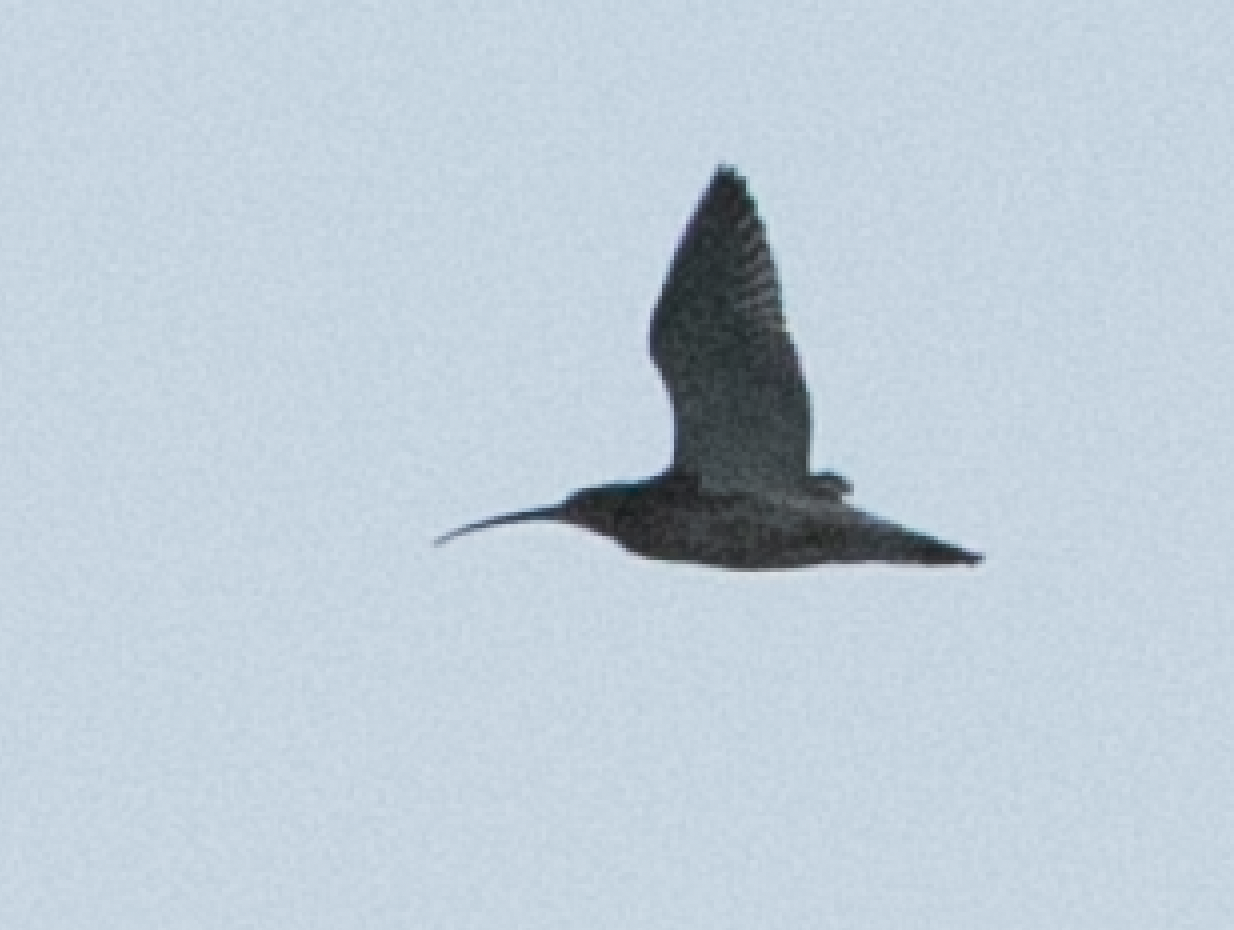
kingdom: Animalia
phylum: Chordata
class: Aves
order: Charadriiformes
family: Scolopacidae
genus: Numenius
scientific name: Numenius arquata
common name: Eurasian curlew
